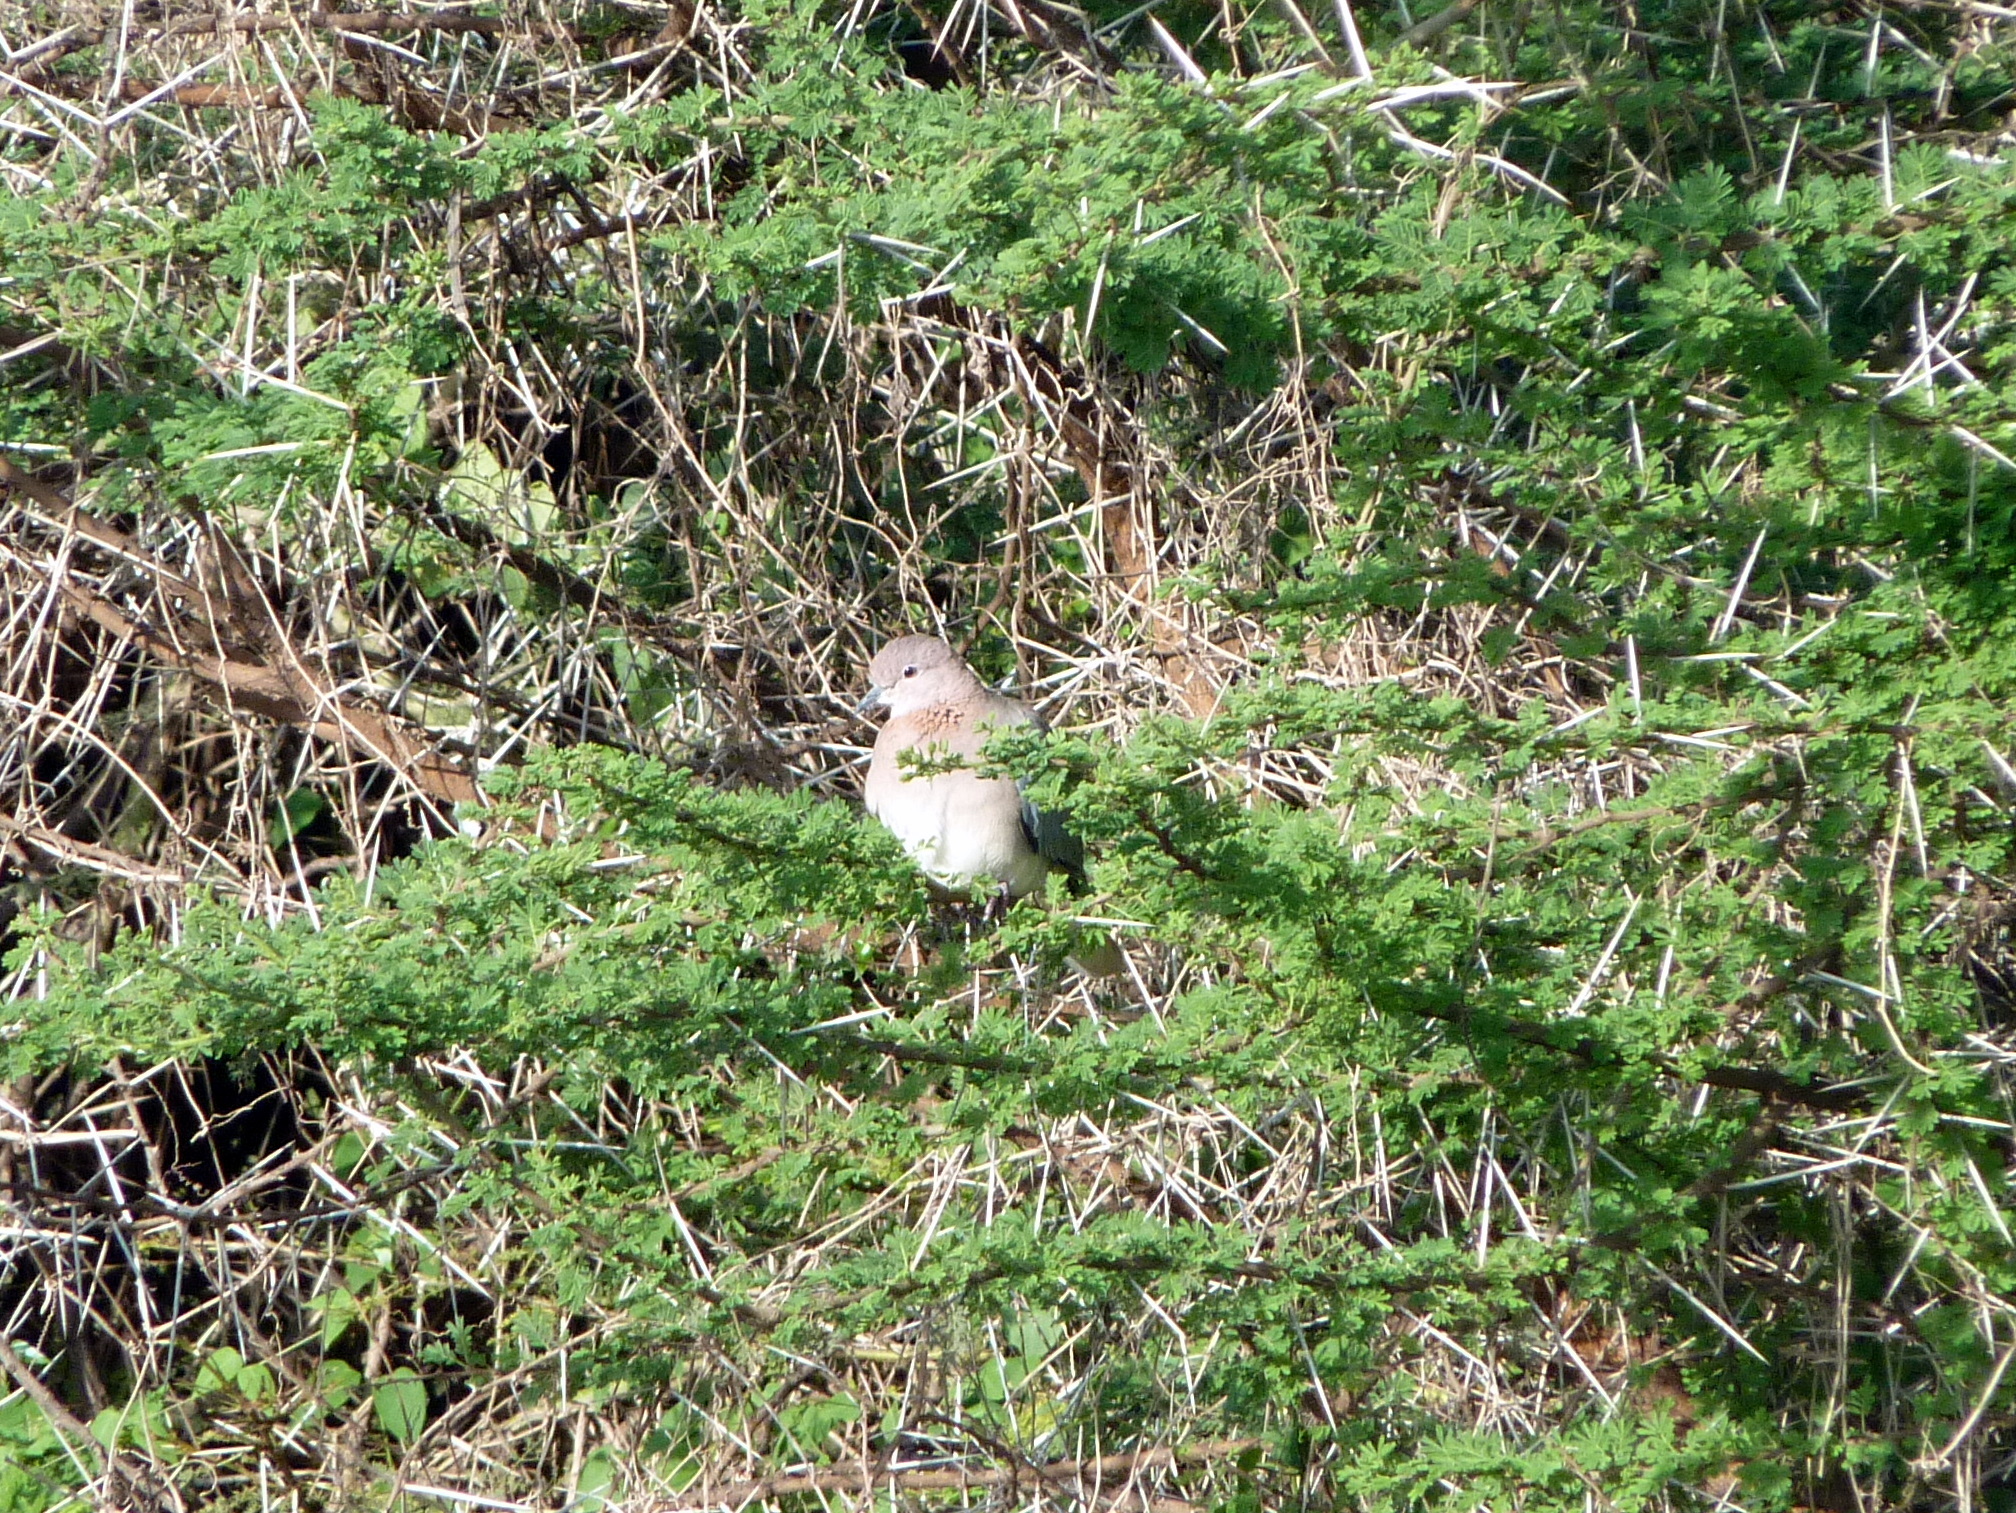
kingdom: Animalia
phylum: Chordata
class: Aves
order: Columbiformes
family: Columbidae
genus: Spilopelia
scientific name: Spilopelia senegalensis
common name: Laughing dove
